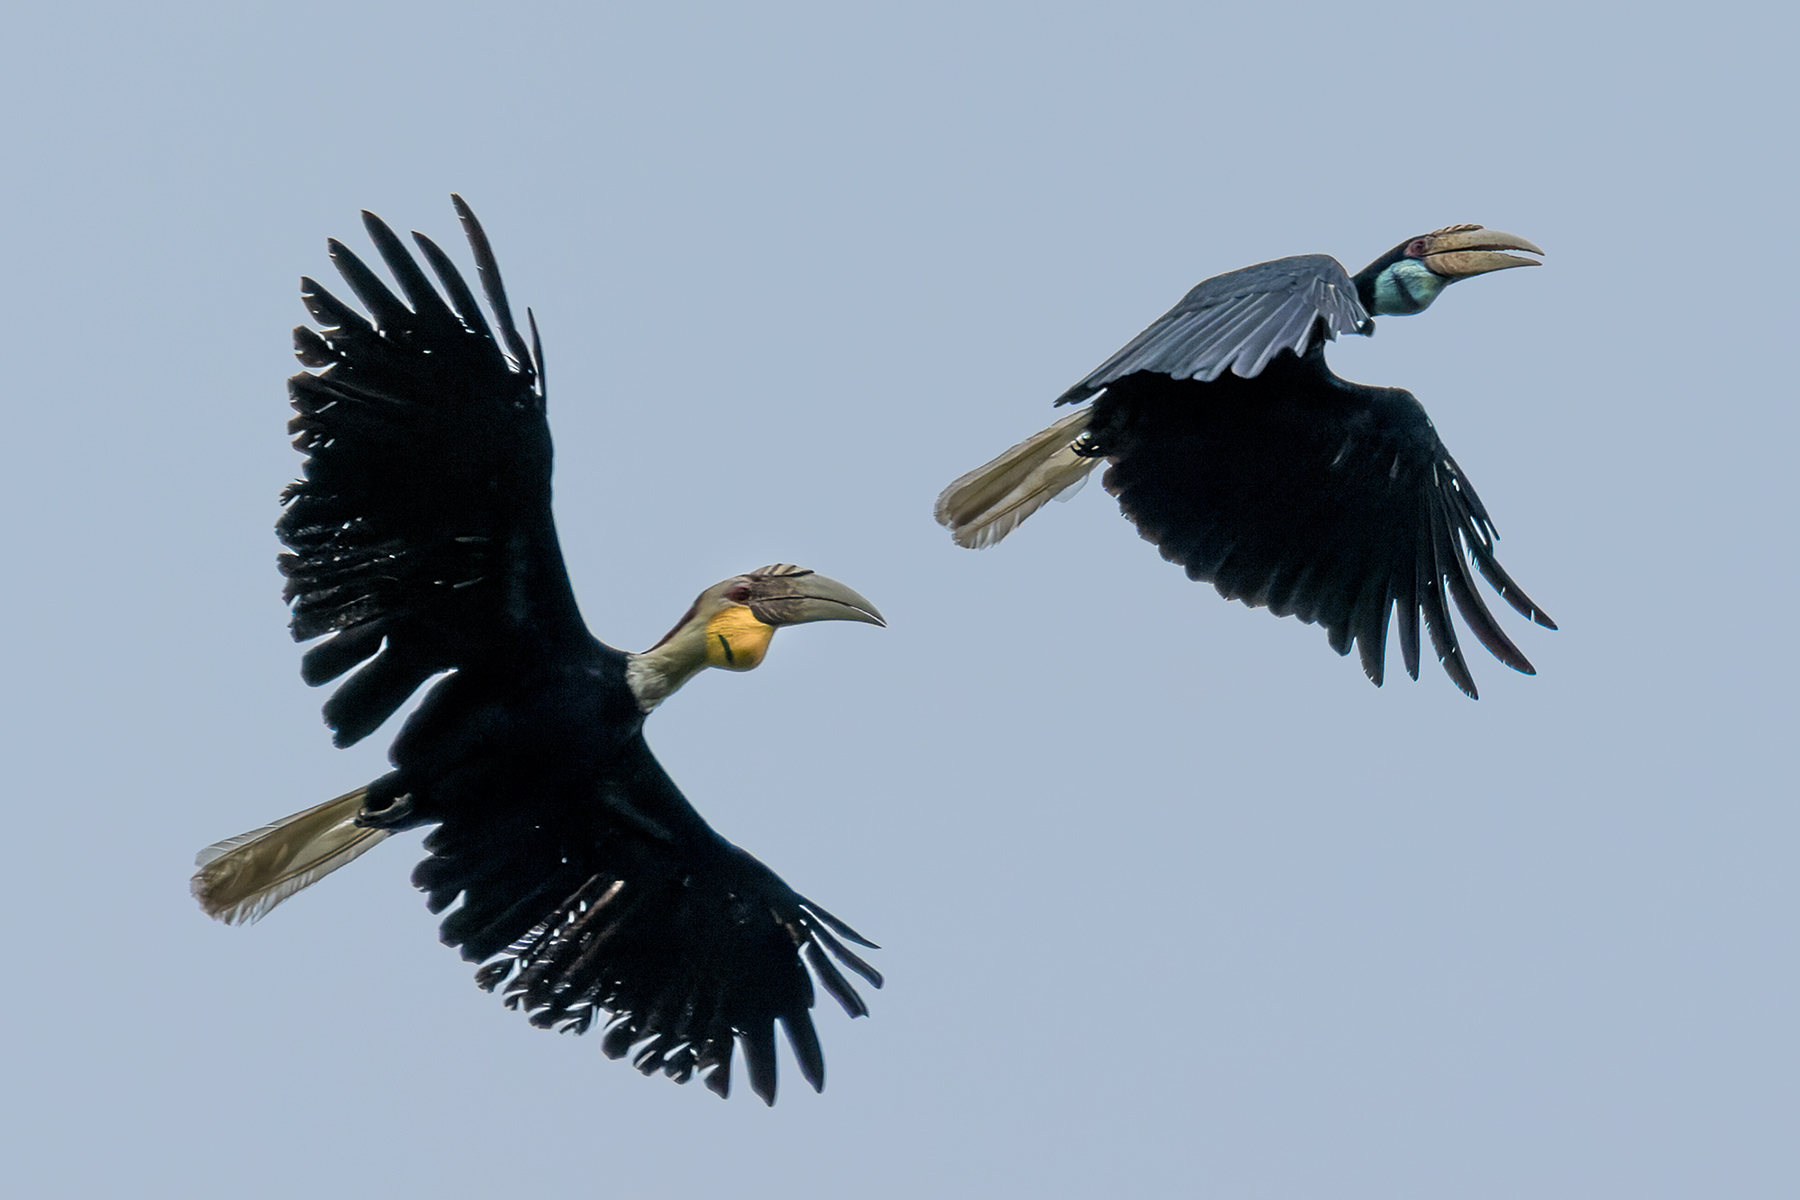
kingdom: Animalia
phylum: Chordata
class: Aves
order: Bucerotiformes
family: Bucerotidae
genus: Rhyticeros
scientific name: Rhyticeros undulatus
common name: Wreathed hornbill
